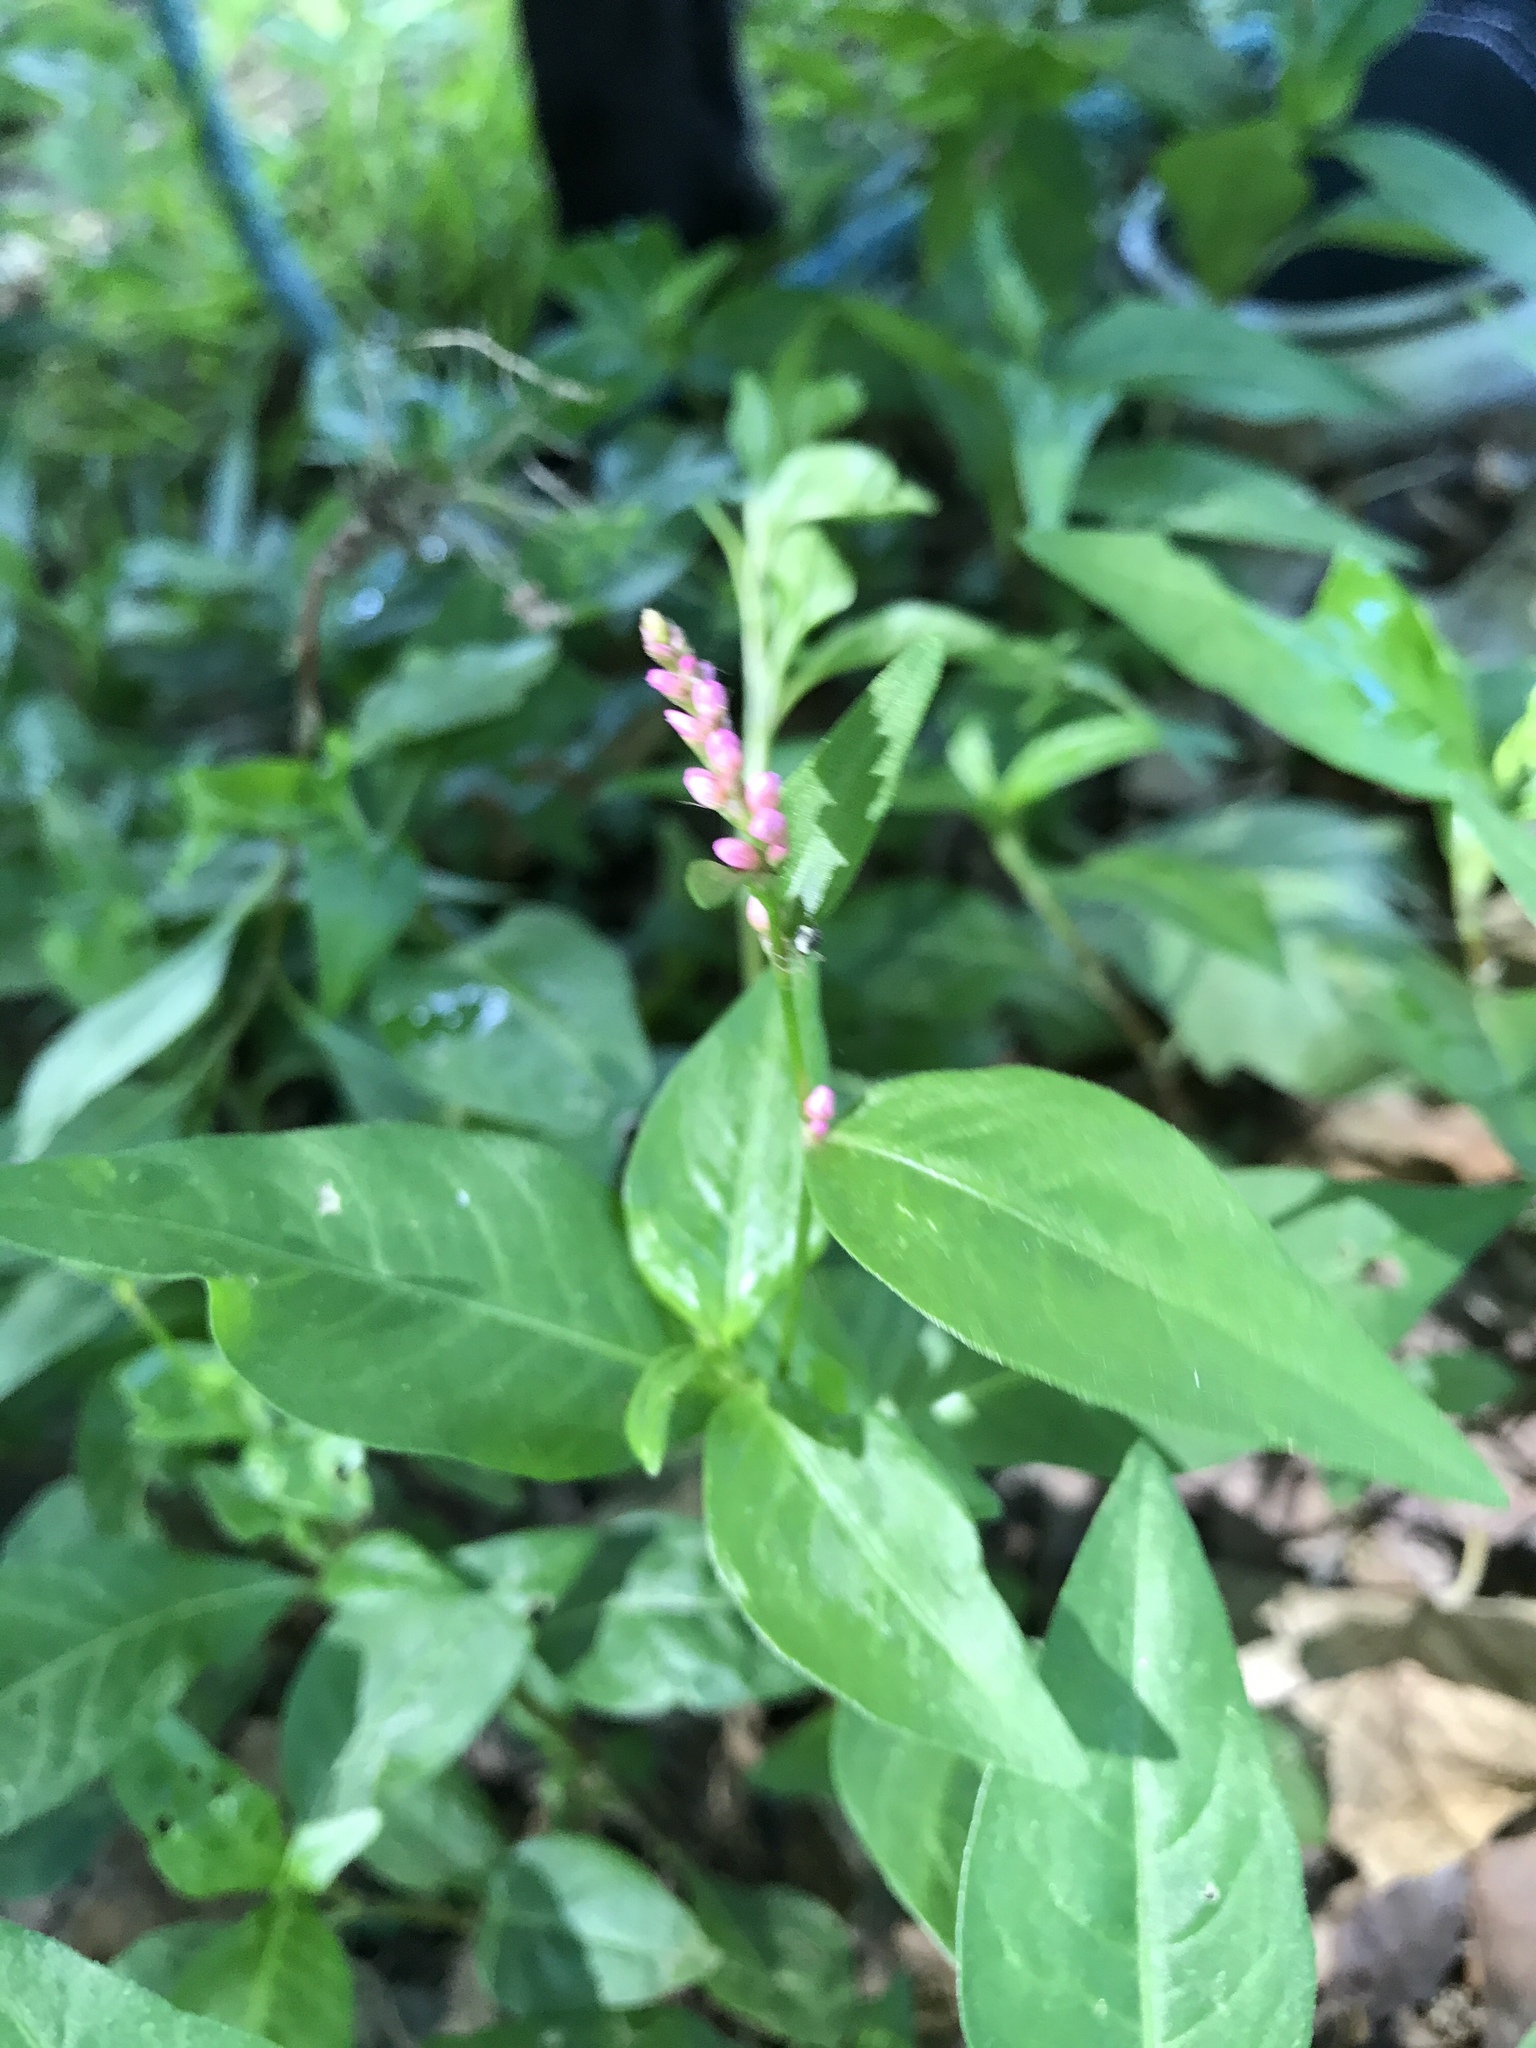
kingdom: Plantae
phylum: Tracheophyta
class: Magnoliopsida
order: Caryophyllales
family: Polygonaceae
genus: Persicaria
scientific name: Persicaria maculosa
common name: Redshank
